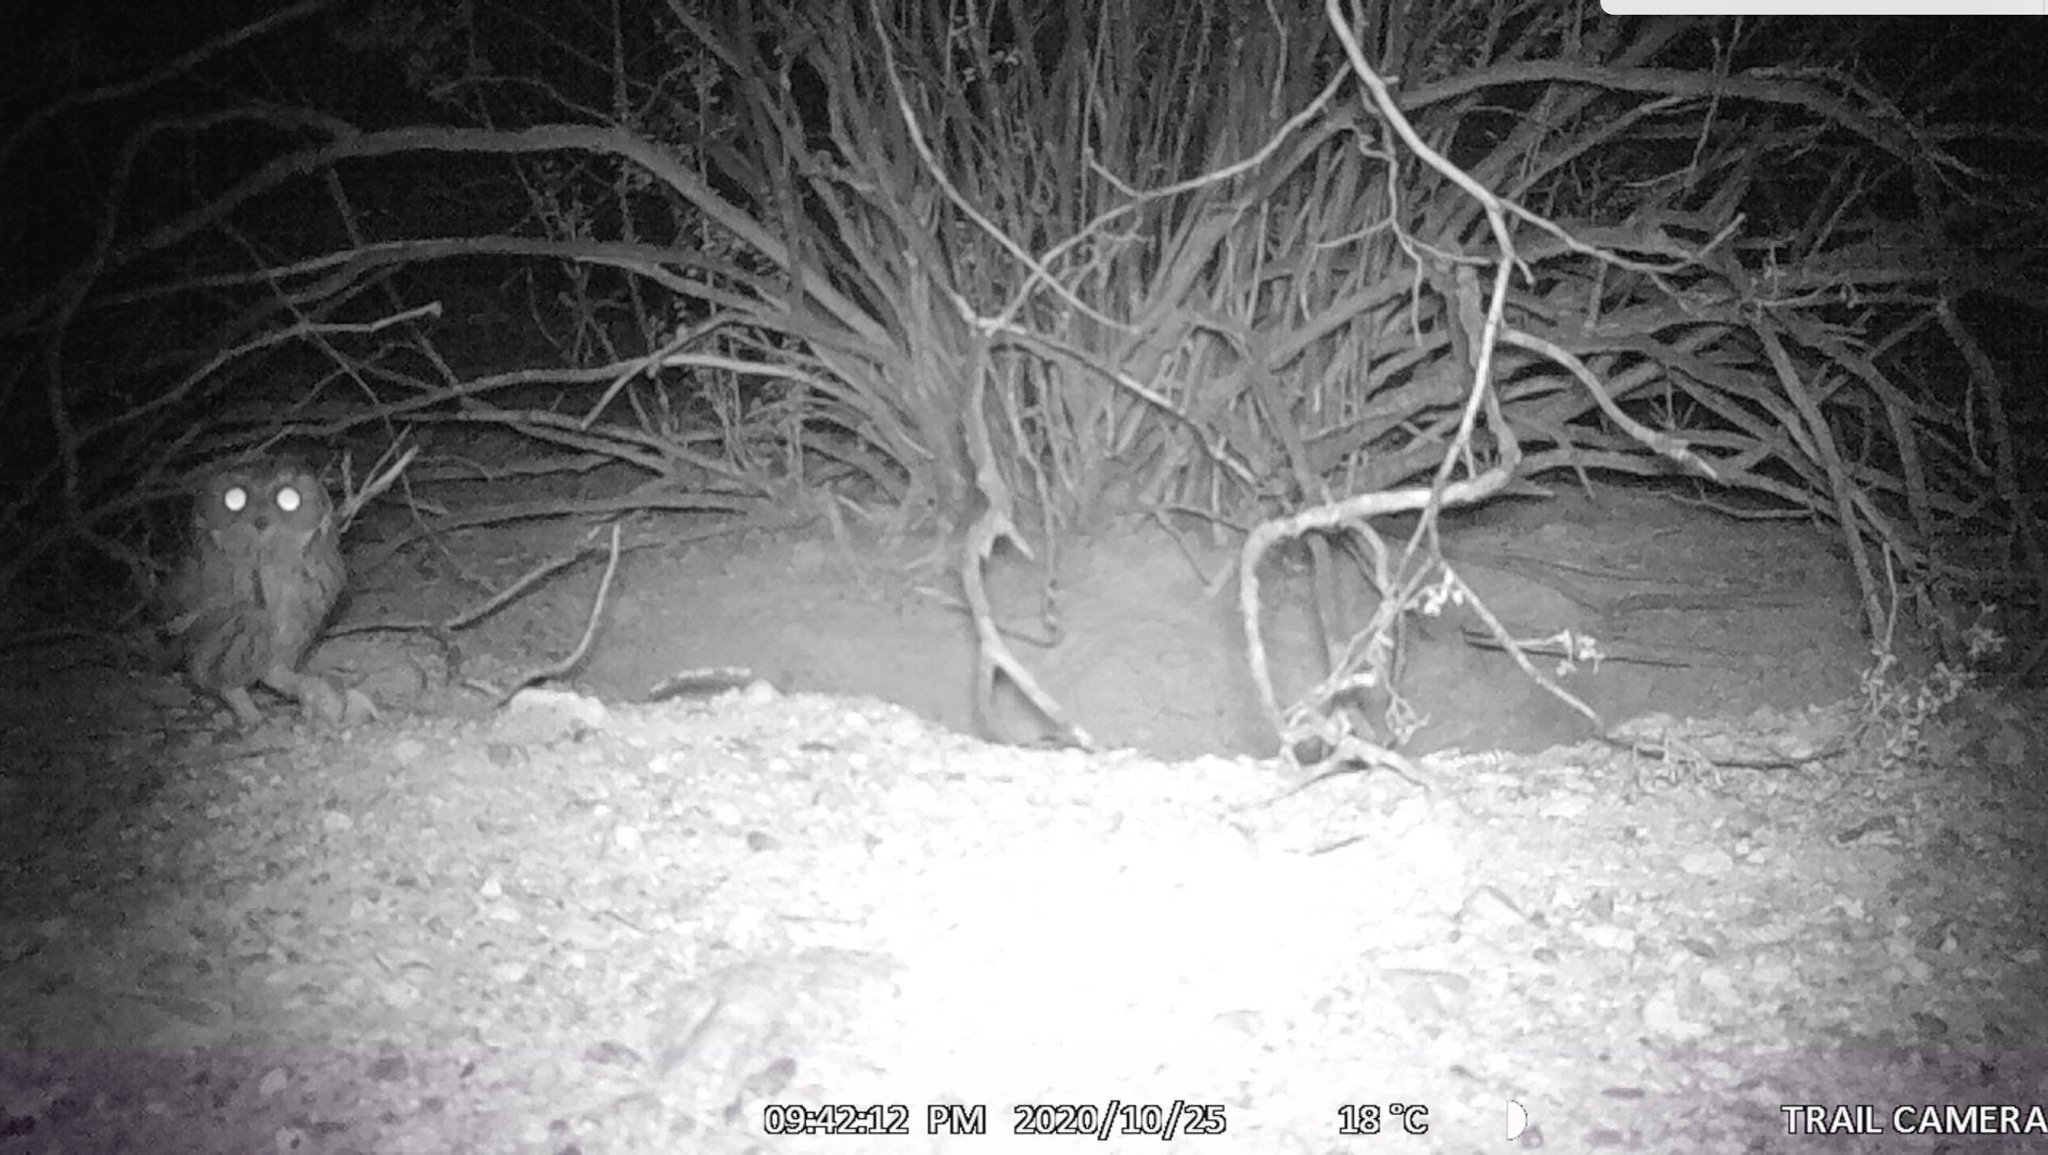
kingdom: Animalia
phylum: Chordata
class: Aves
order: Strigiformes
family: Strigidae
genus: Megascops
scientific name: Megascops kennicottii
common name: Western screech-owl
